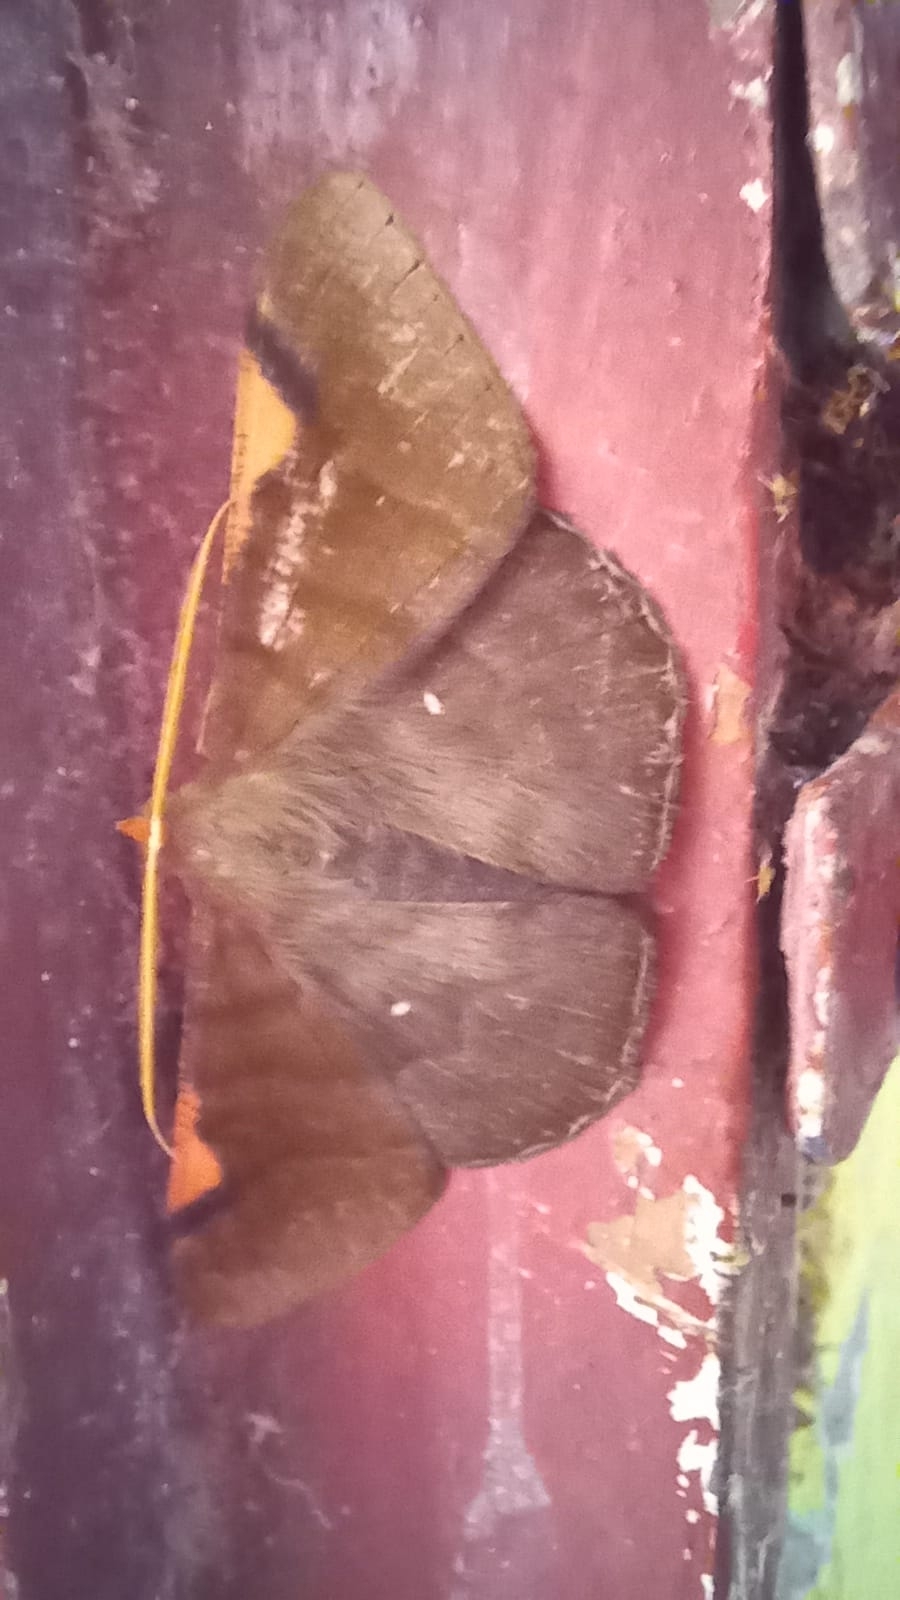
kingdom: Animalia
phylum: Arthropoda
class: Insecta
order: Lepidoptera
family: Geometridae
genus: Sphacelodes
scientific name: Sphacelodes vulneraria
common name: Looper moth
